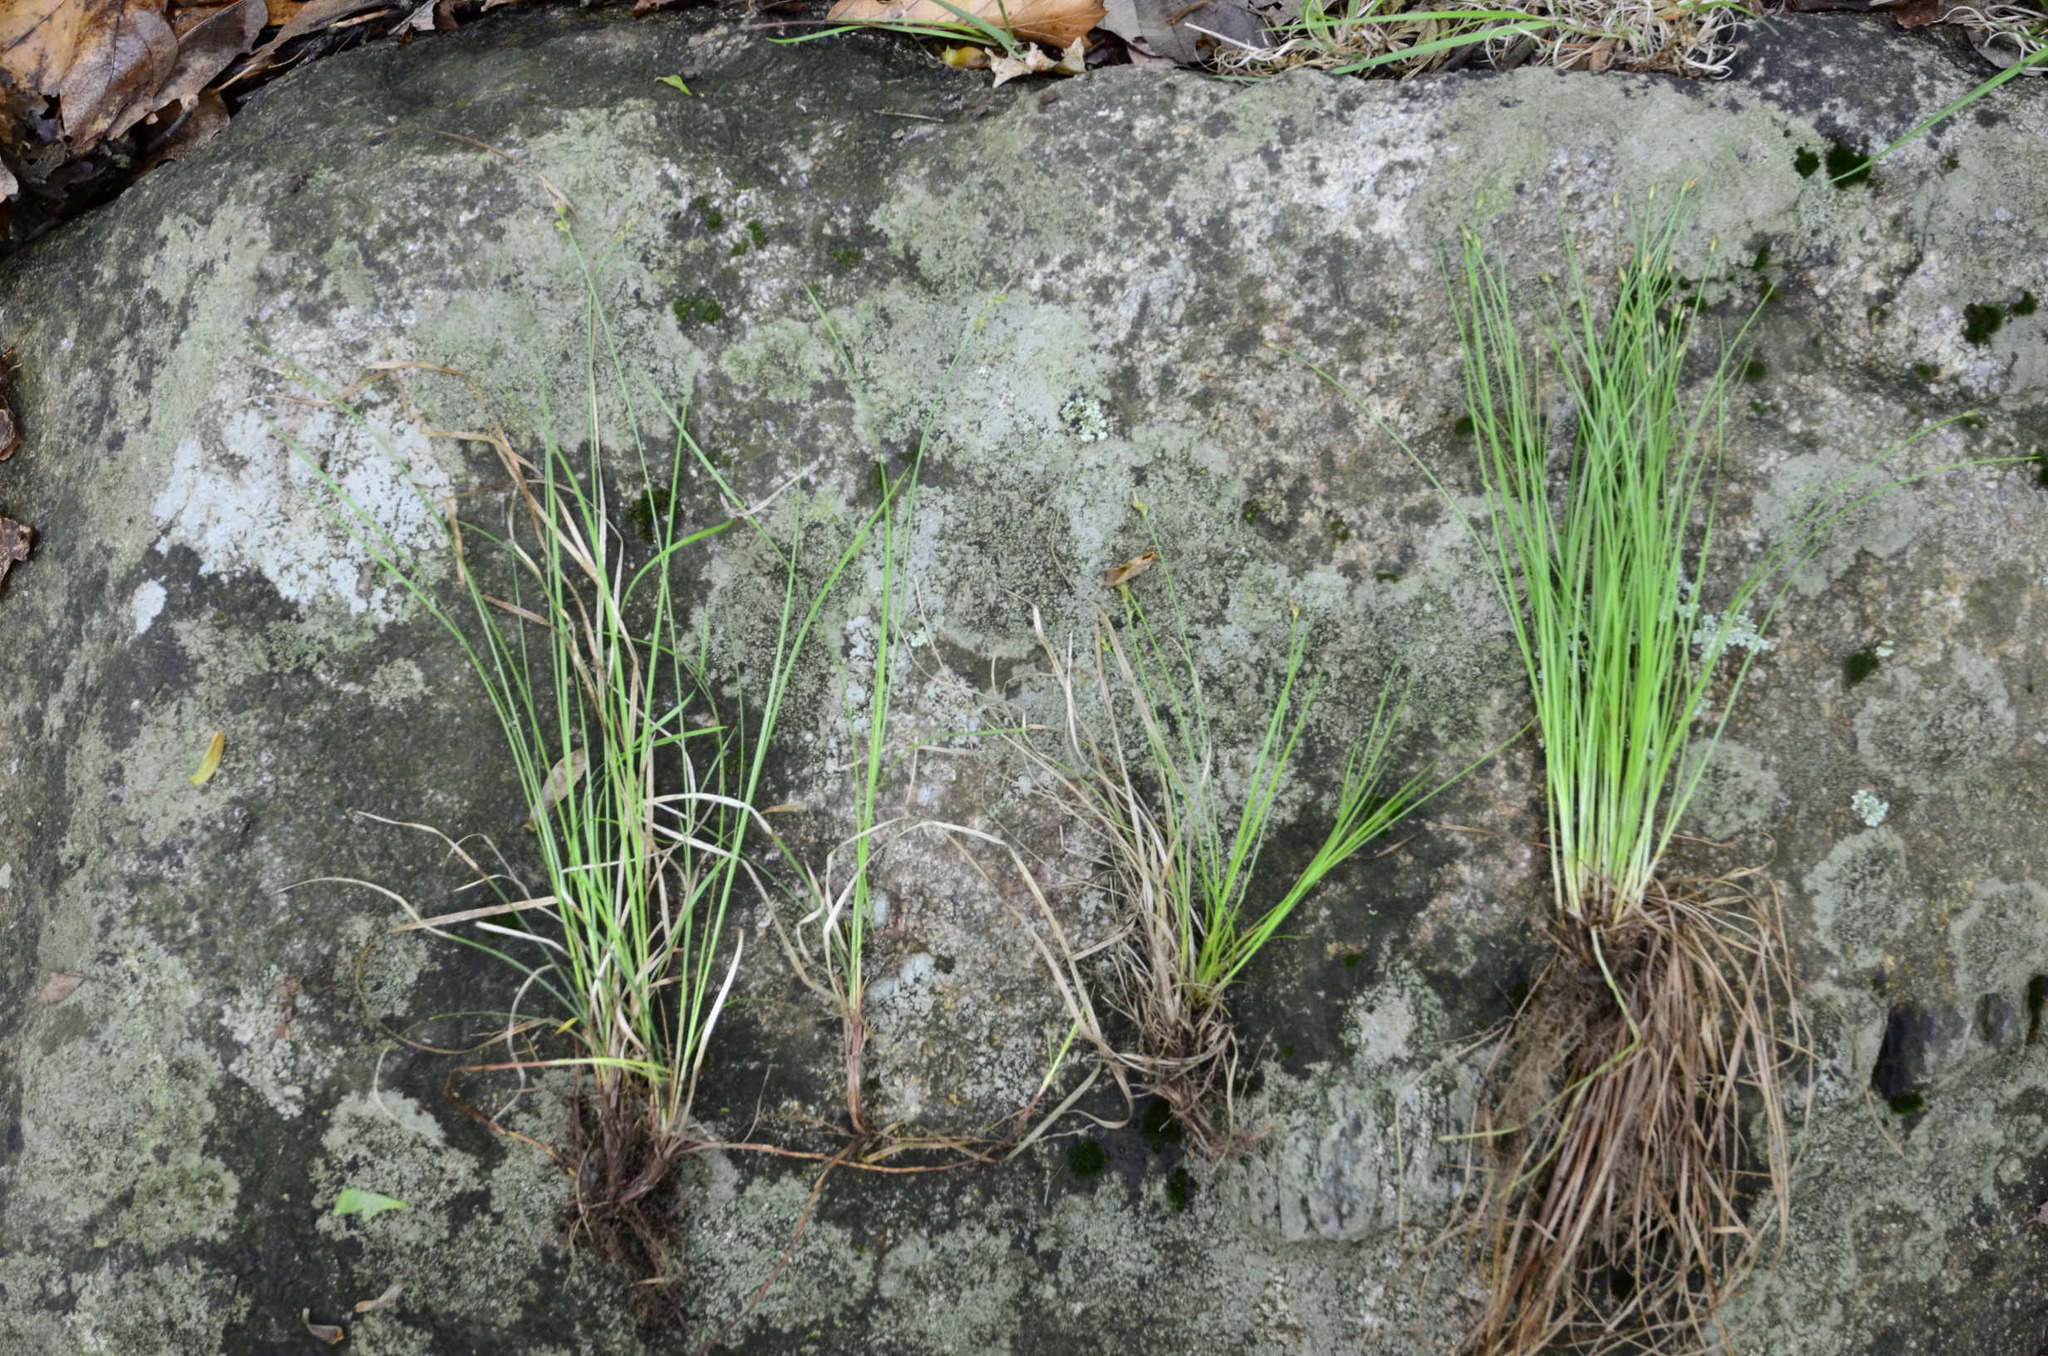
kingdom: Plantae
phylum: Tracheophyta
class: Liliopsida
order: Poales
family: Cyperaceae
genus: Trichophorum
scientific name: Trichophorum planifolium
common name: Bashful bulrush
